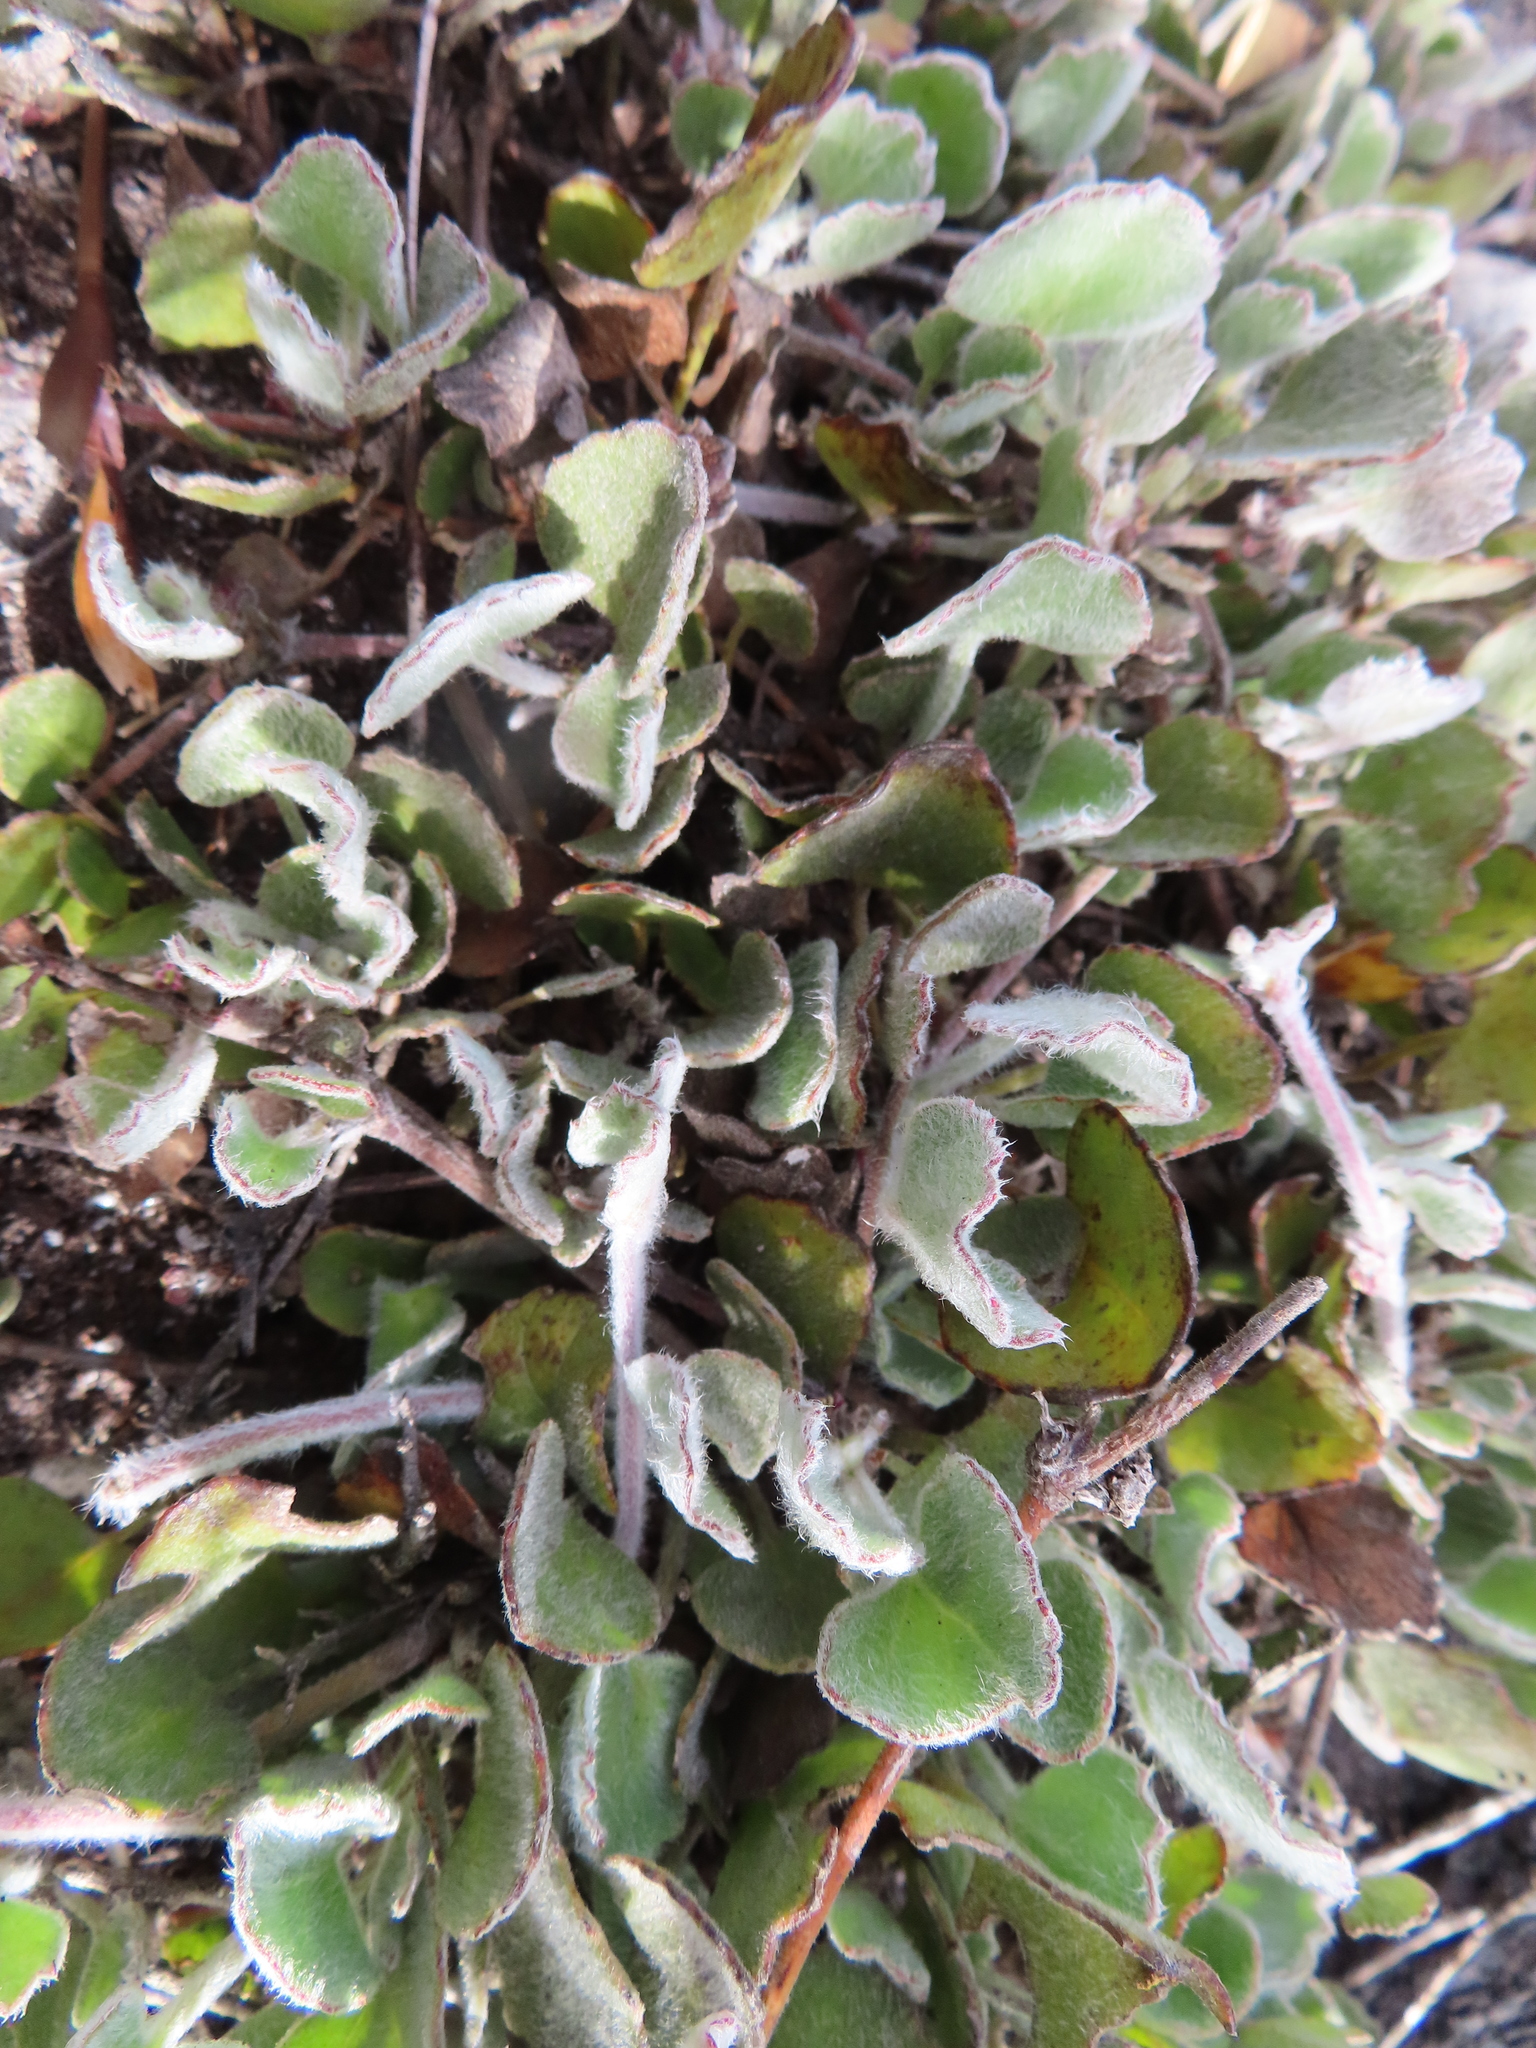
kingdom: Plantae
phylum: Tracheophyta
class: Magnoliopsida
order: Apiales
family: Apiaceae
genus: Centella
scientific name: Centella calcaria
